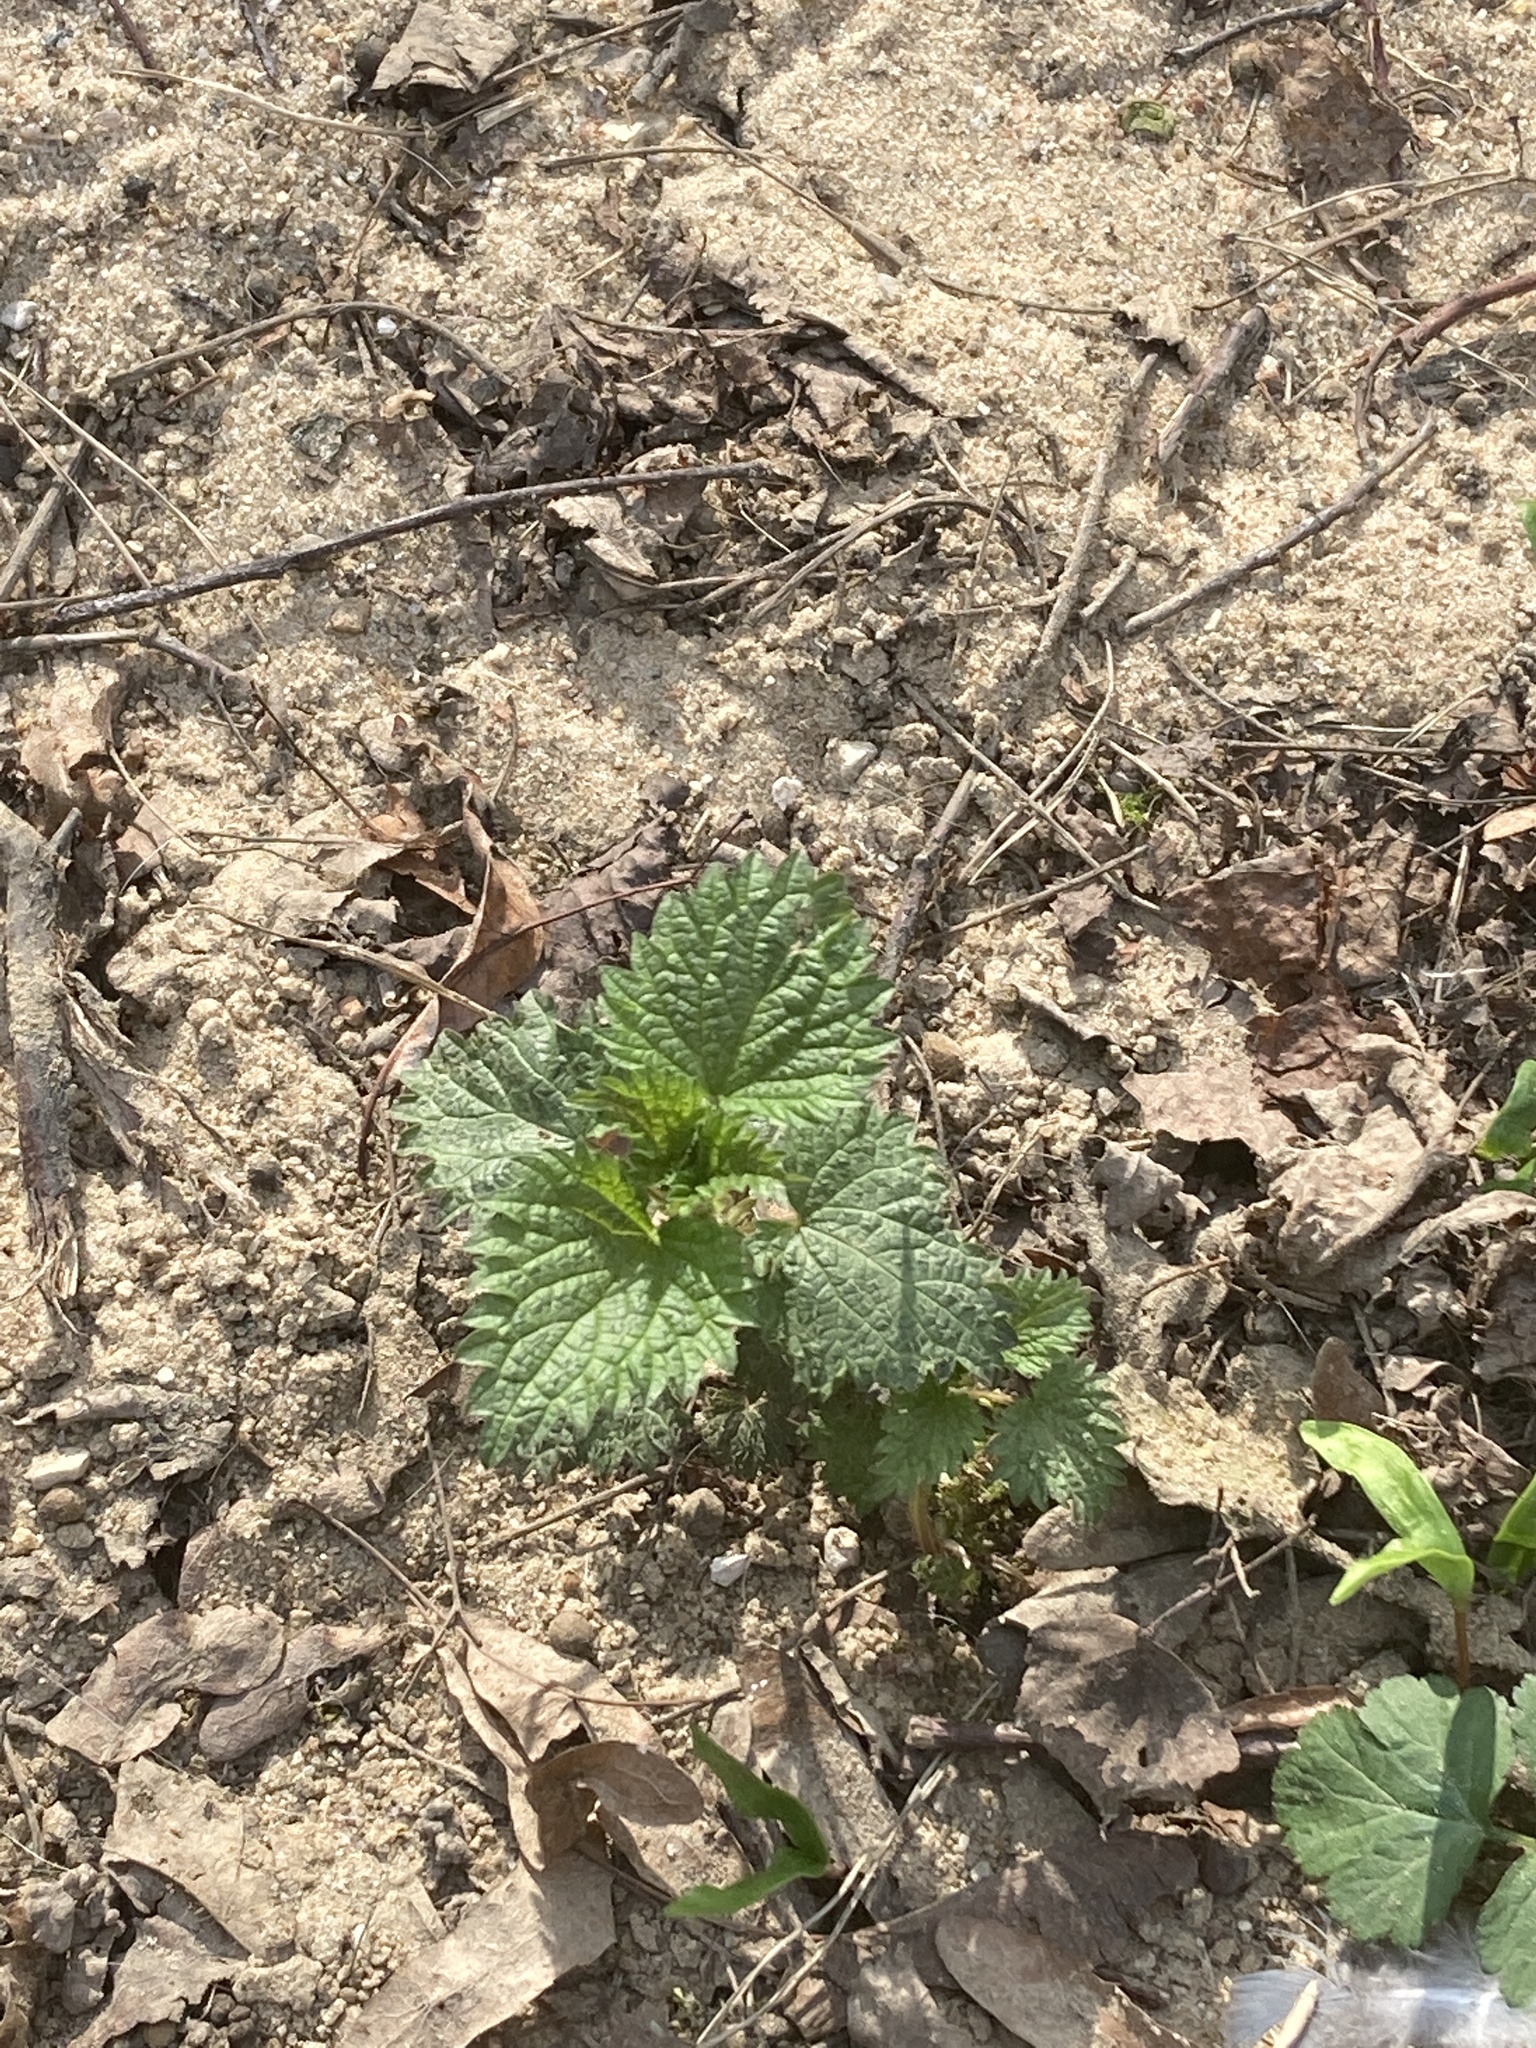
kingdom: Plantae
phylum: Tracheophyta
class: Magnoliopsida
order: Rosales
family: Urticaceae
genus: Urtica
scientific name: Urtica dioica
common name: Common nettle
